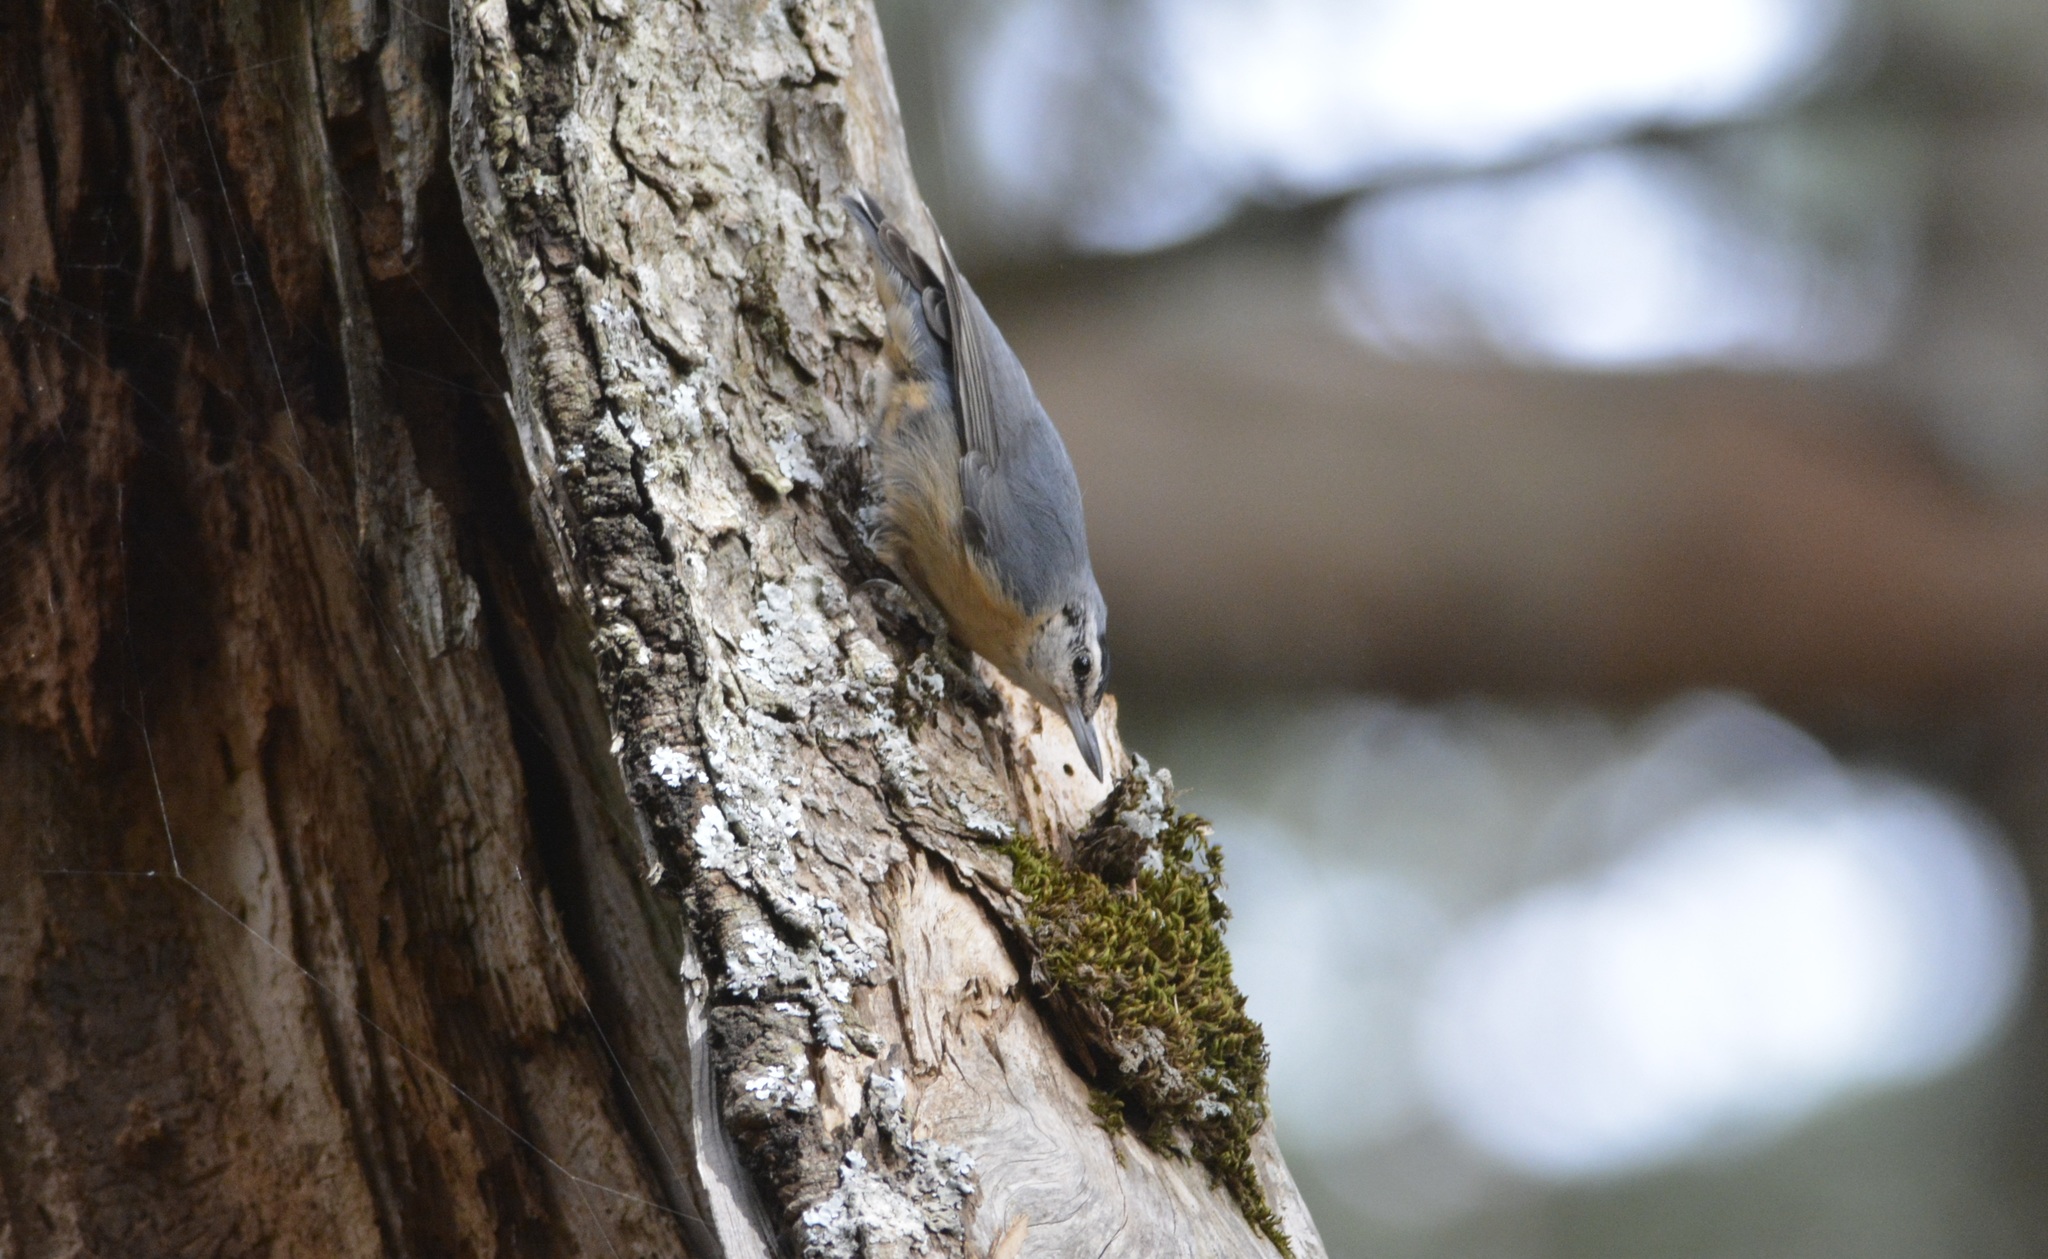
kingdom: Animalia
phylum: Chordata
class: Aves
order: Passeriformes
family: Sittidae
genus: Sitta
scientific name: Sitta ledanti
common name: Algerian nuthatch
